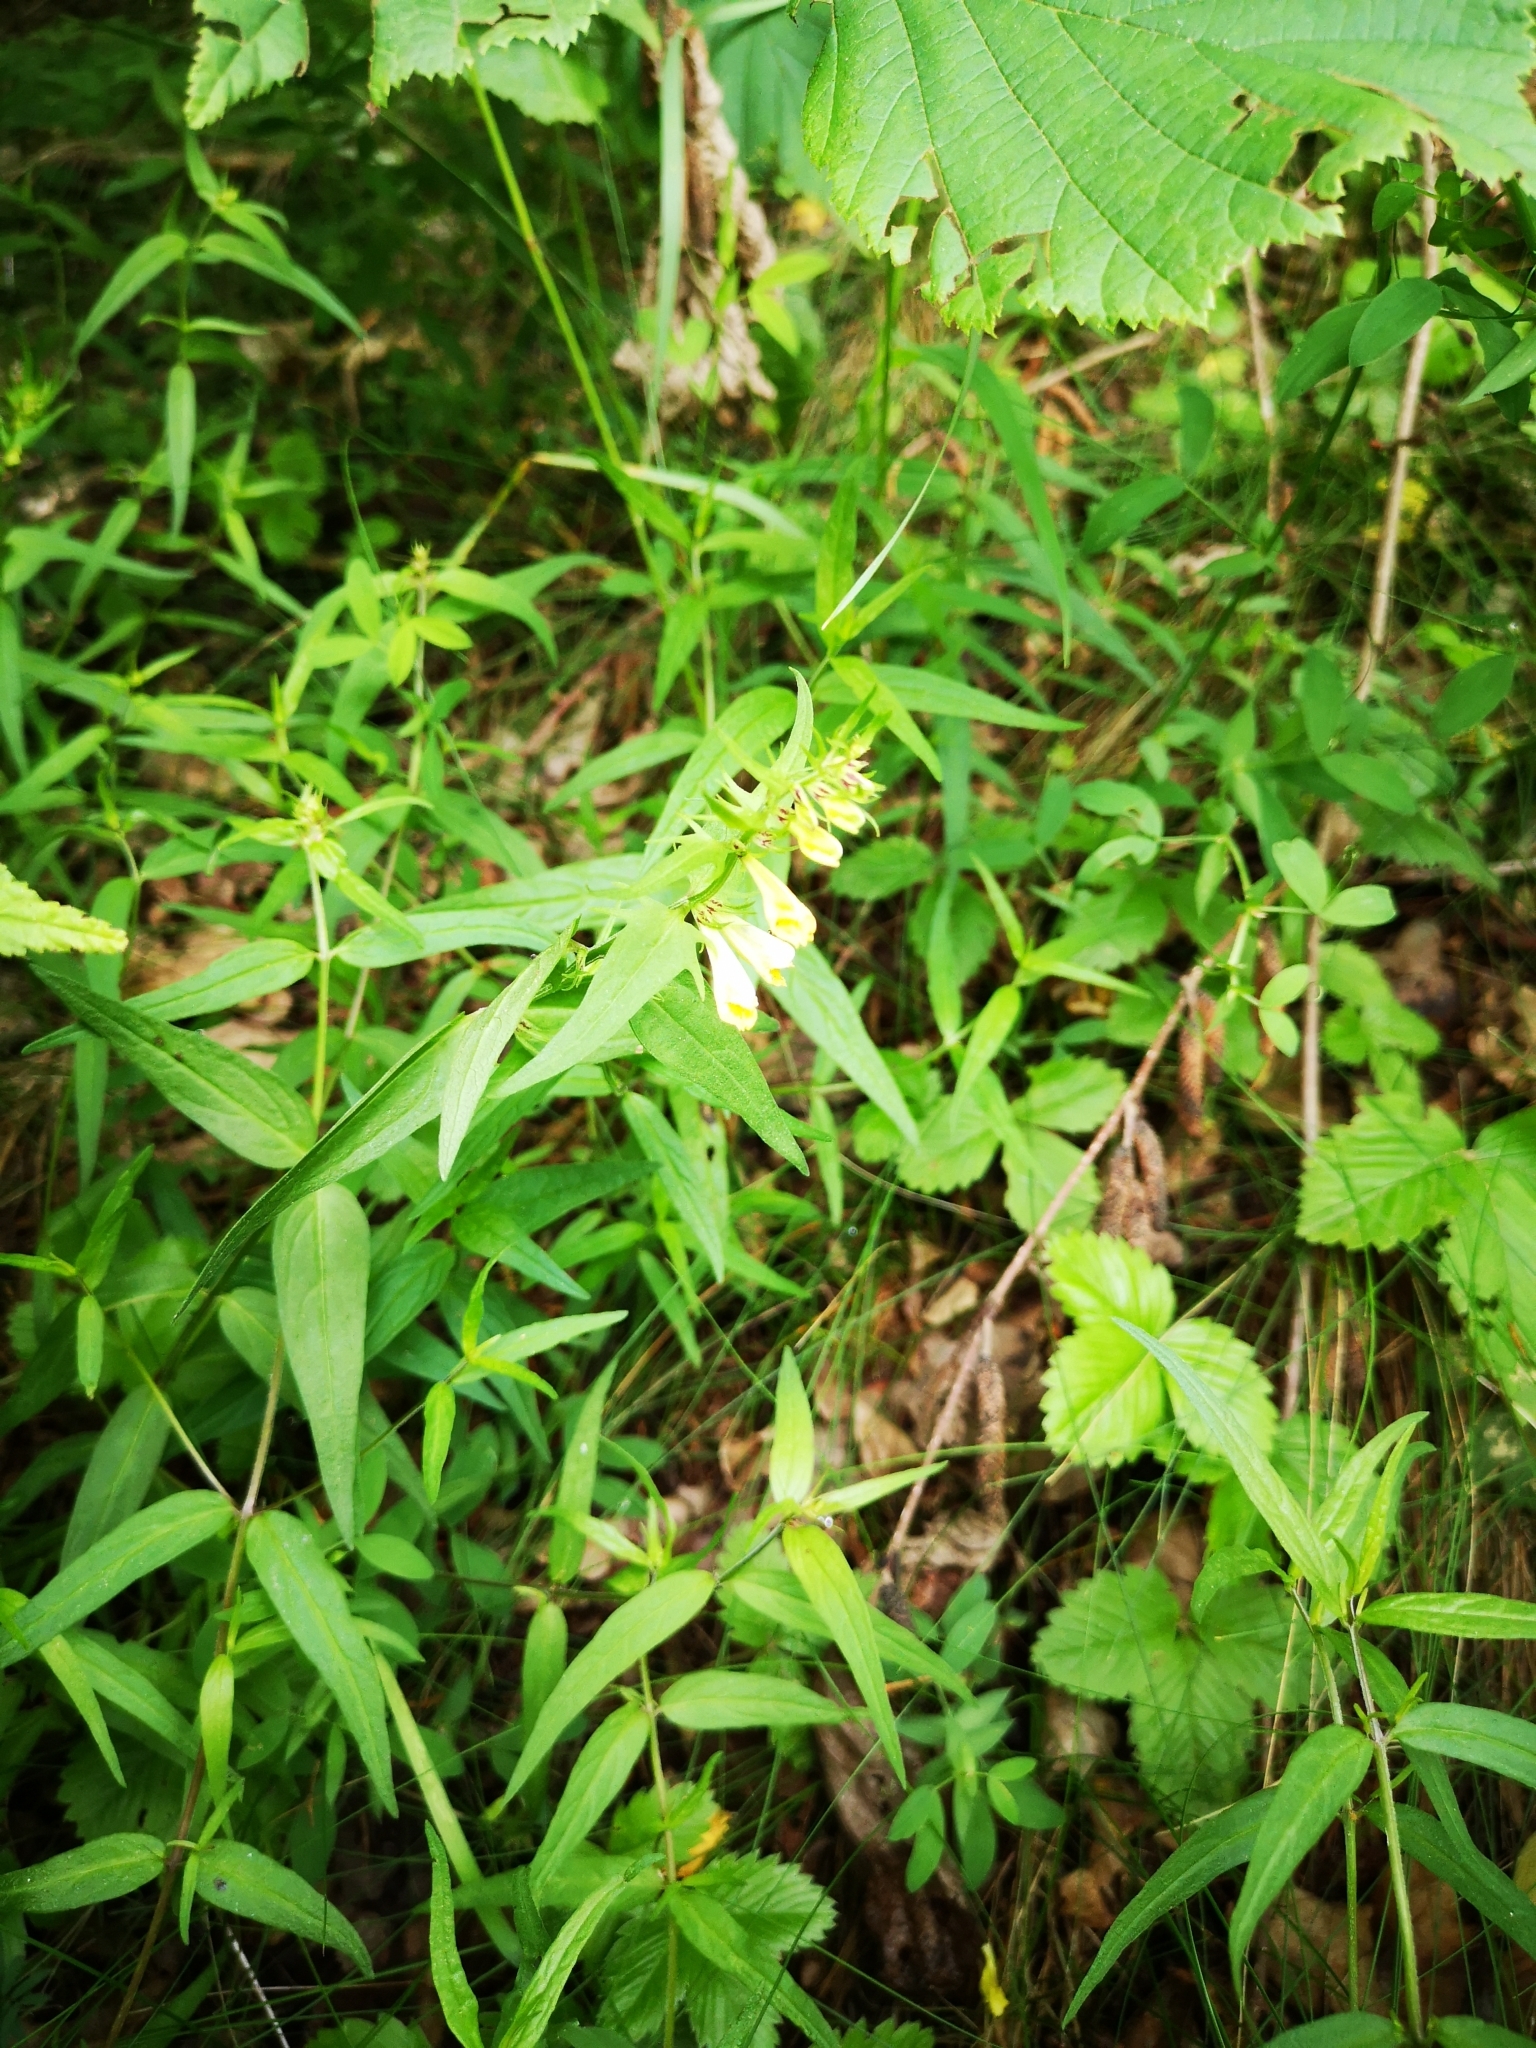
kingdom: Plantae
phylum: Tracheophyta
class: Magnoliopsida
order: Lamiales
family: Orobanchaceae
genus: Melampyrum
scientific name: Melampyrum pratense
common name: Common cow-wheat
